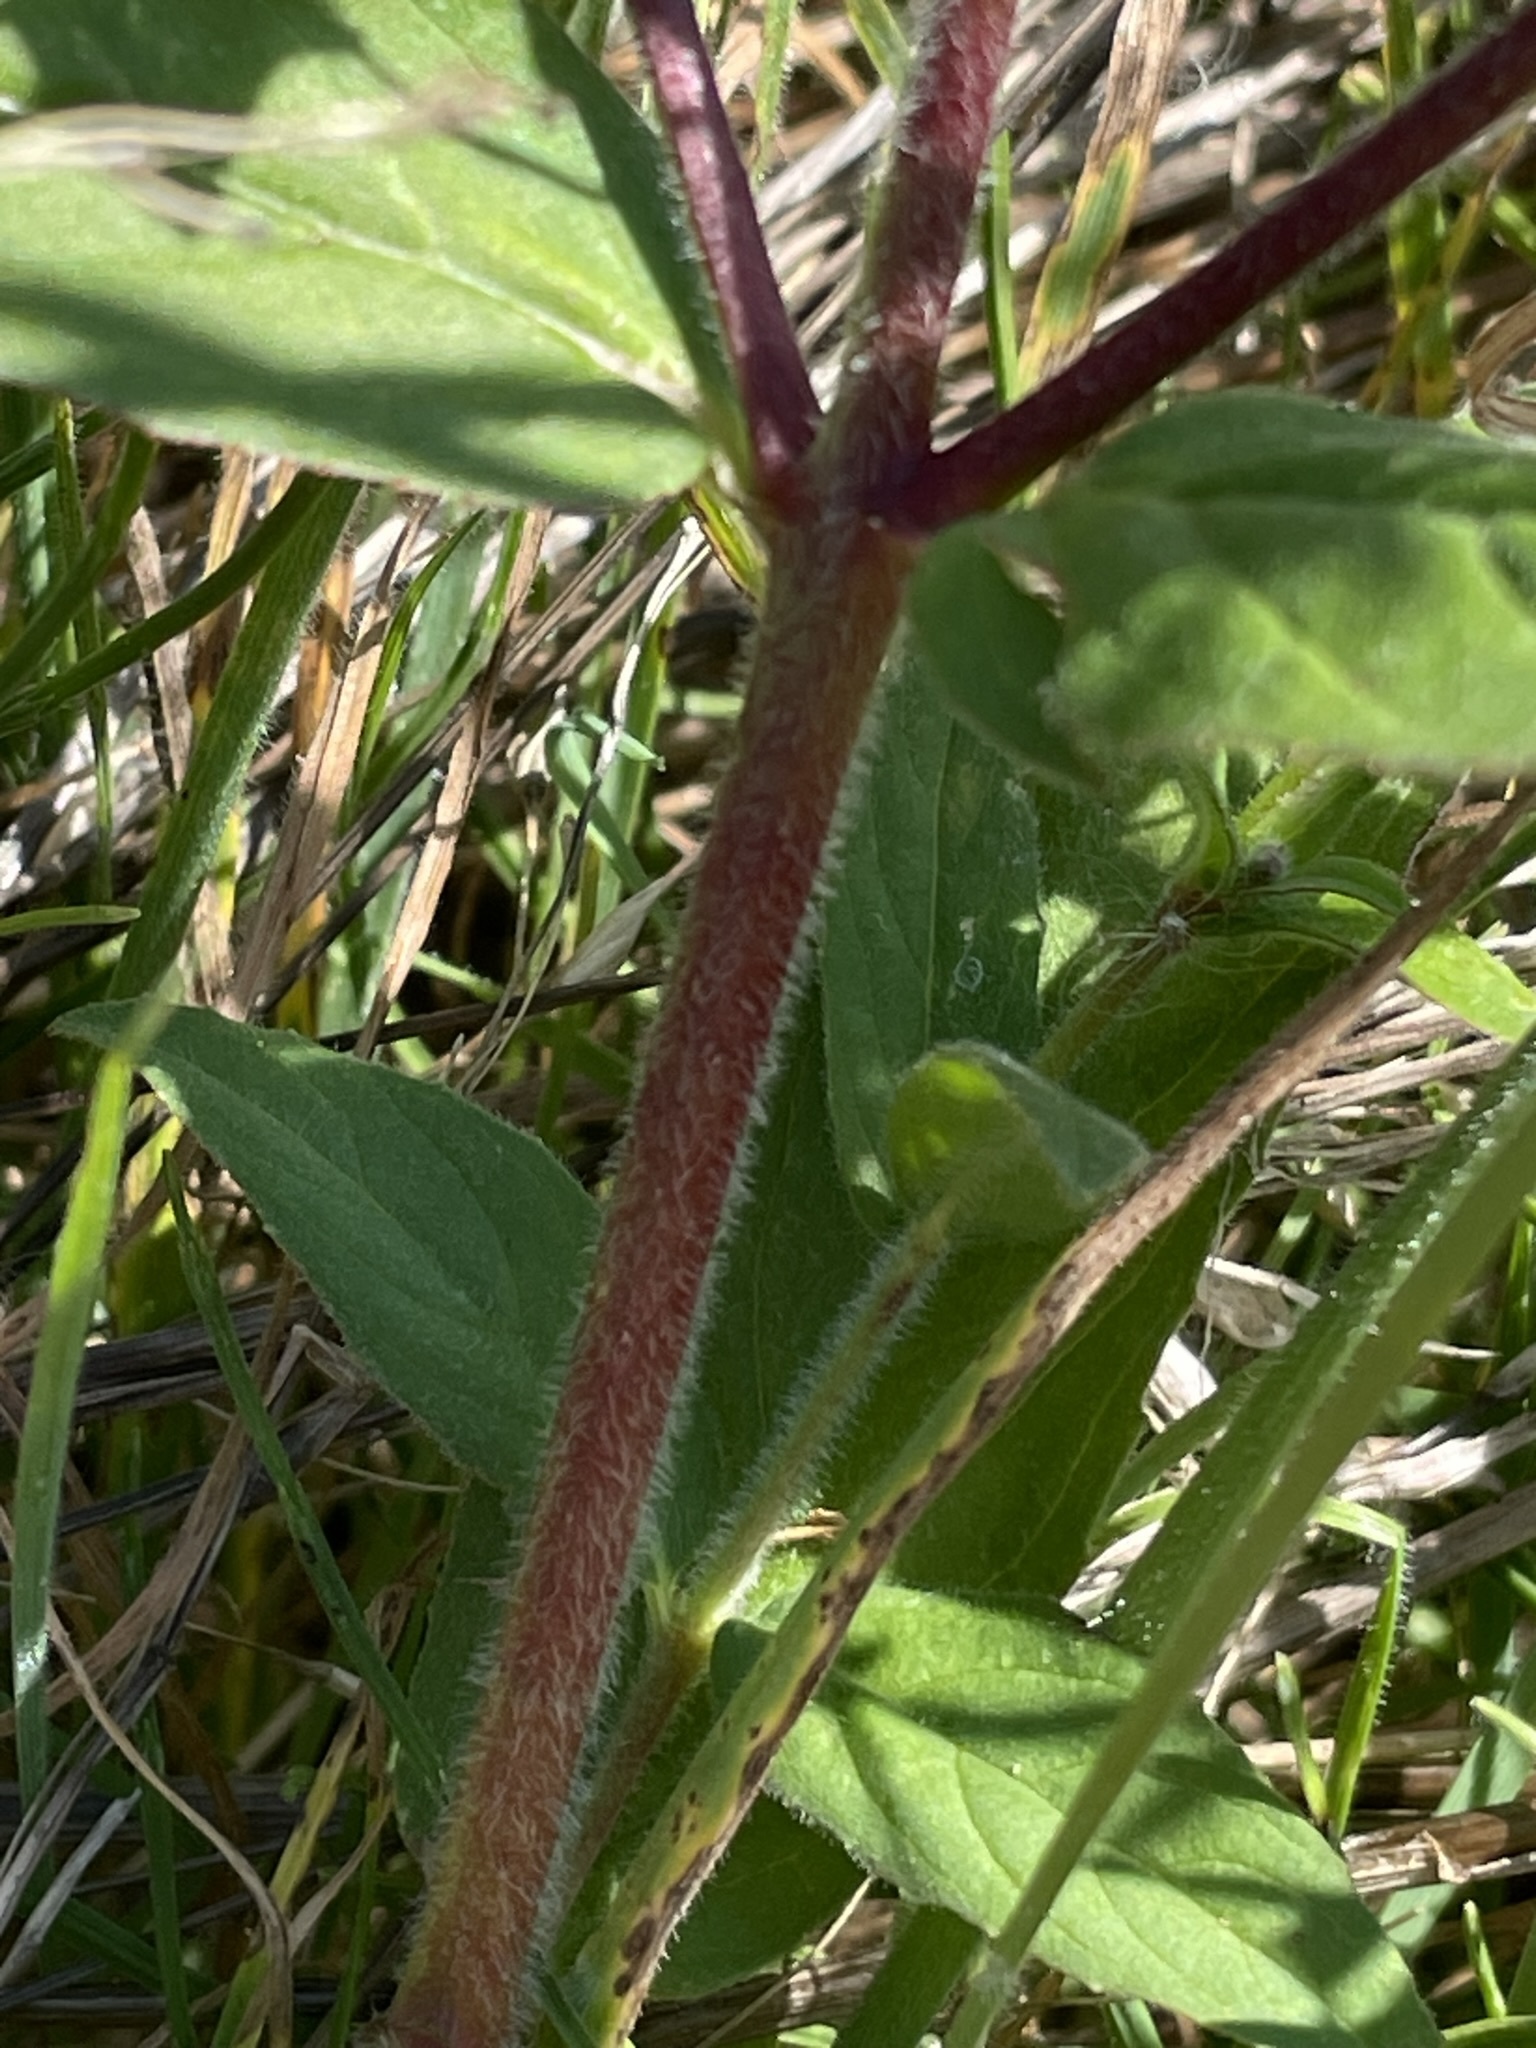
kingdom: Plantae
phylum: Tracheophyta
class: Magnoliopsida
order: Myrtales
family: Onagraceae
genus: Epilobium
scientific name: Epilobium parviflorum
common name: Hoary willowherb
